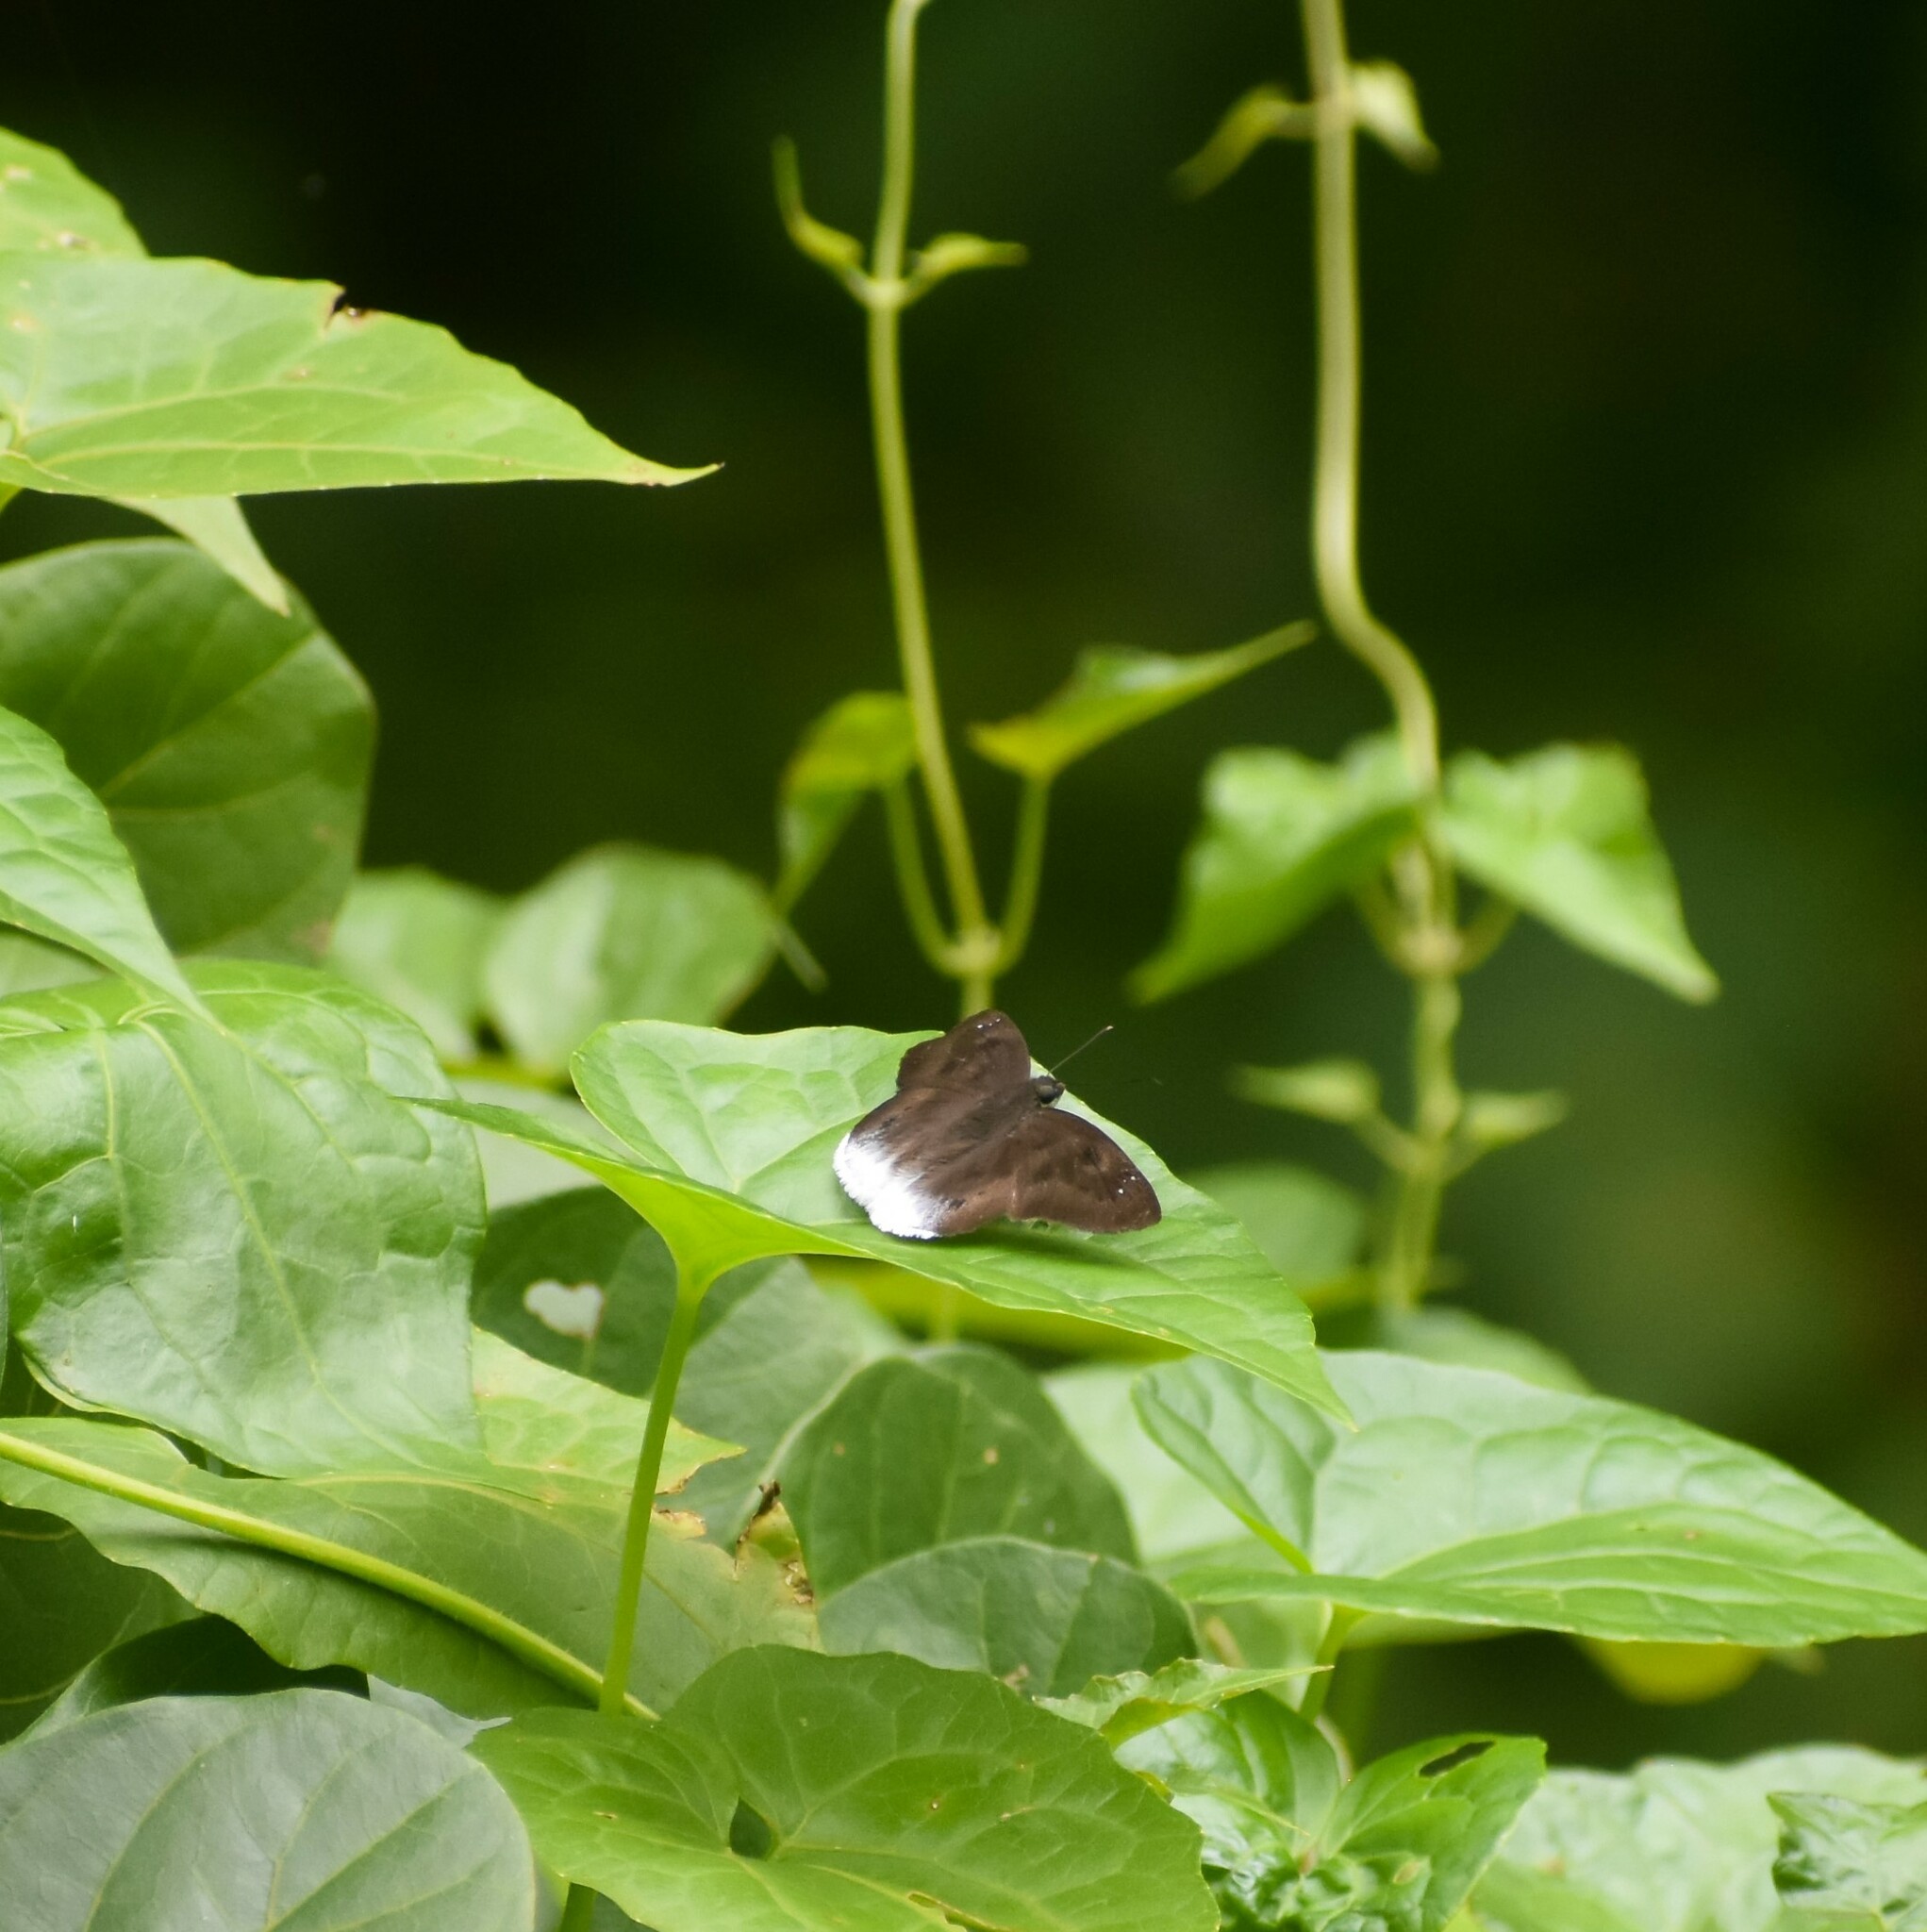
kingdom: Animalia
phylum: Arthropoda
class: Insecta
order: Lepidoptera
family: Hesperiidae
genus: Tagiades
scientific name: Tagiades gana
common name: Suffused snow flat
